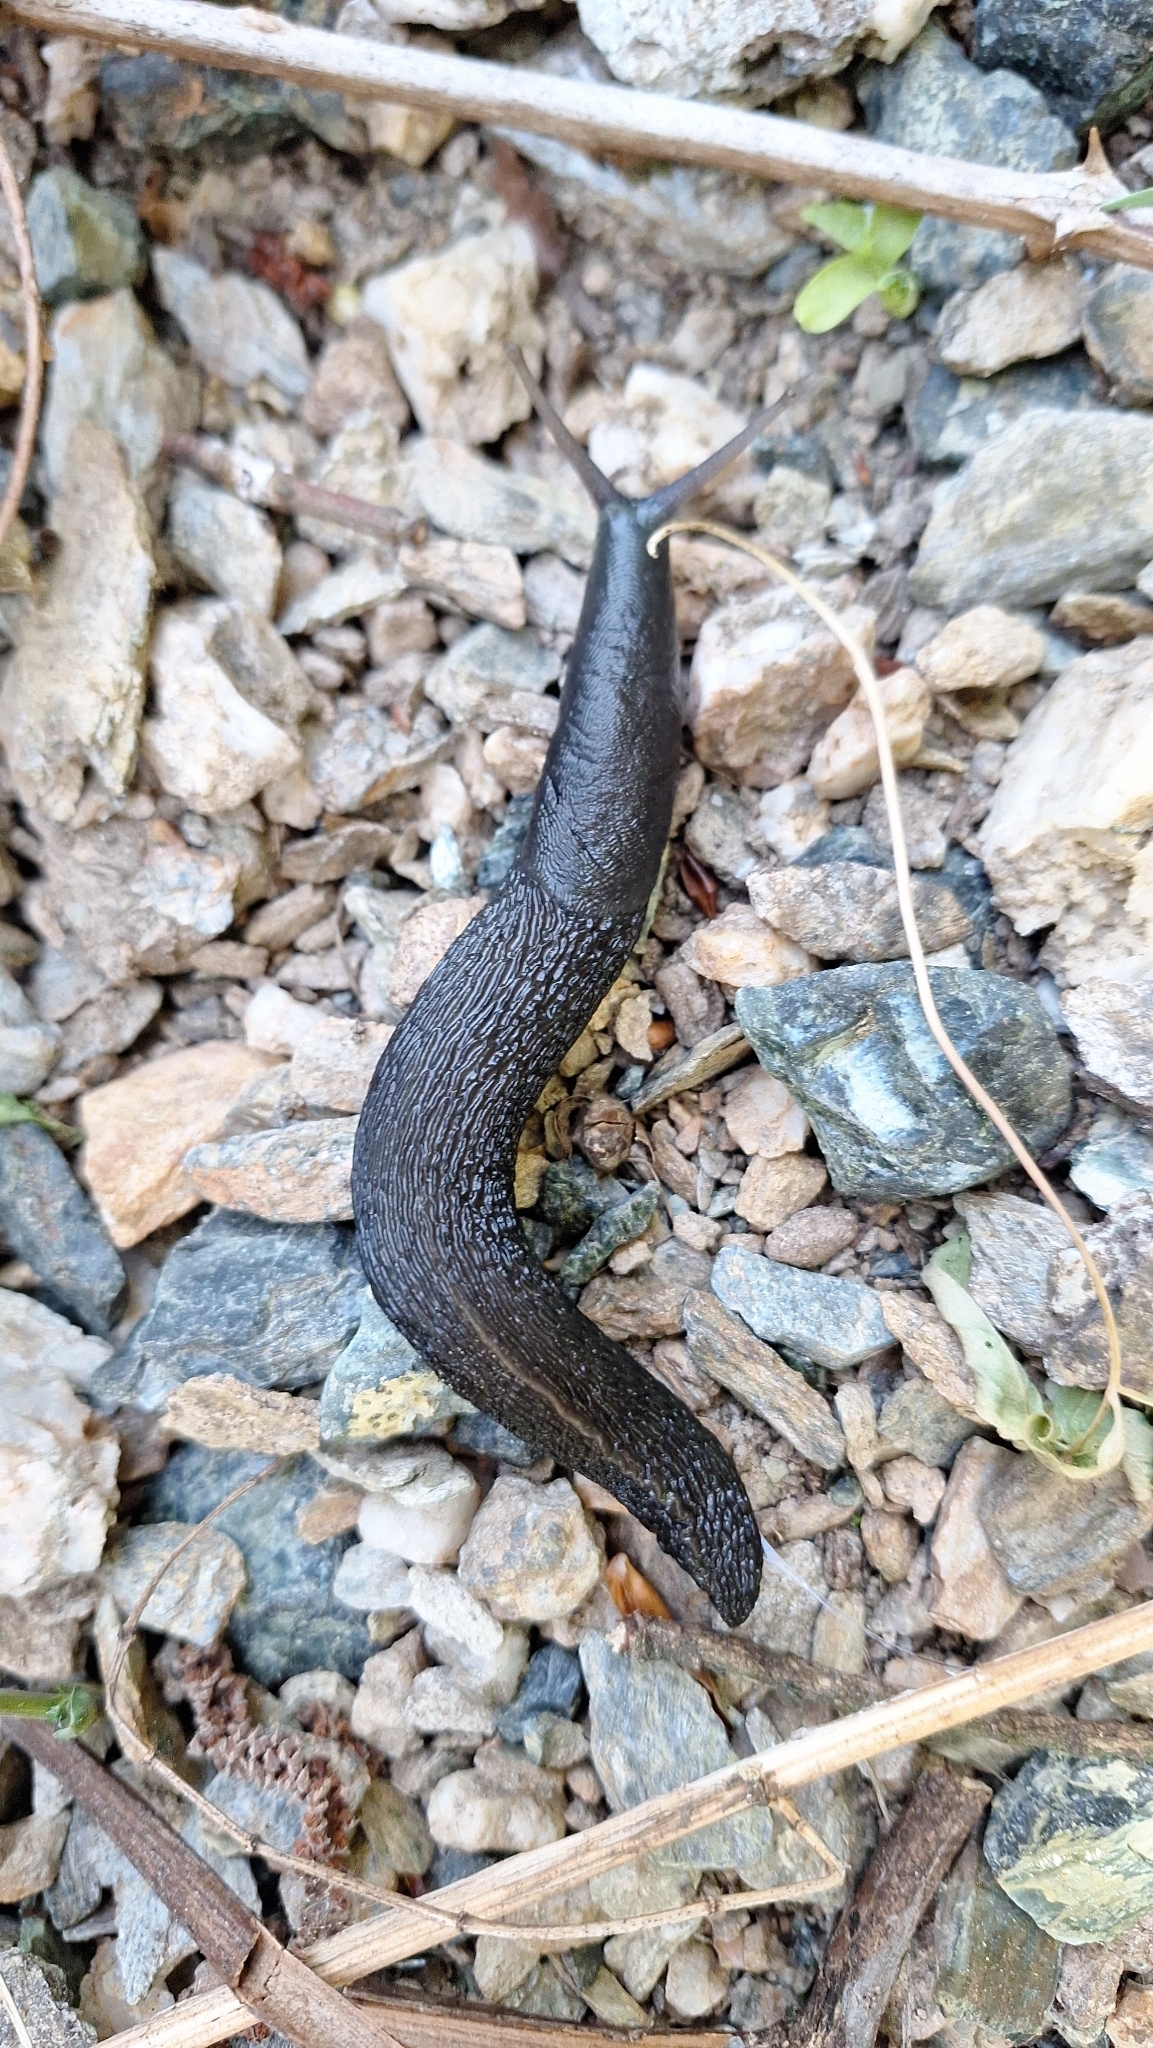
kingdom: Animalia
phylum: Mollusca
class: Gastropoda
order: Stylommatophora
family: Limacidae
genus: Limax
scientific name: Limax cinereoniger
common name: Ash-black slug
